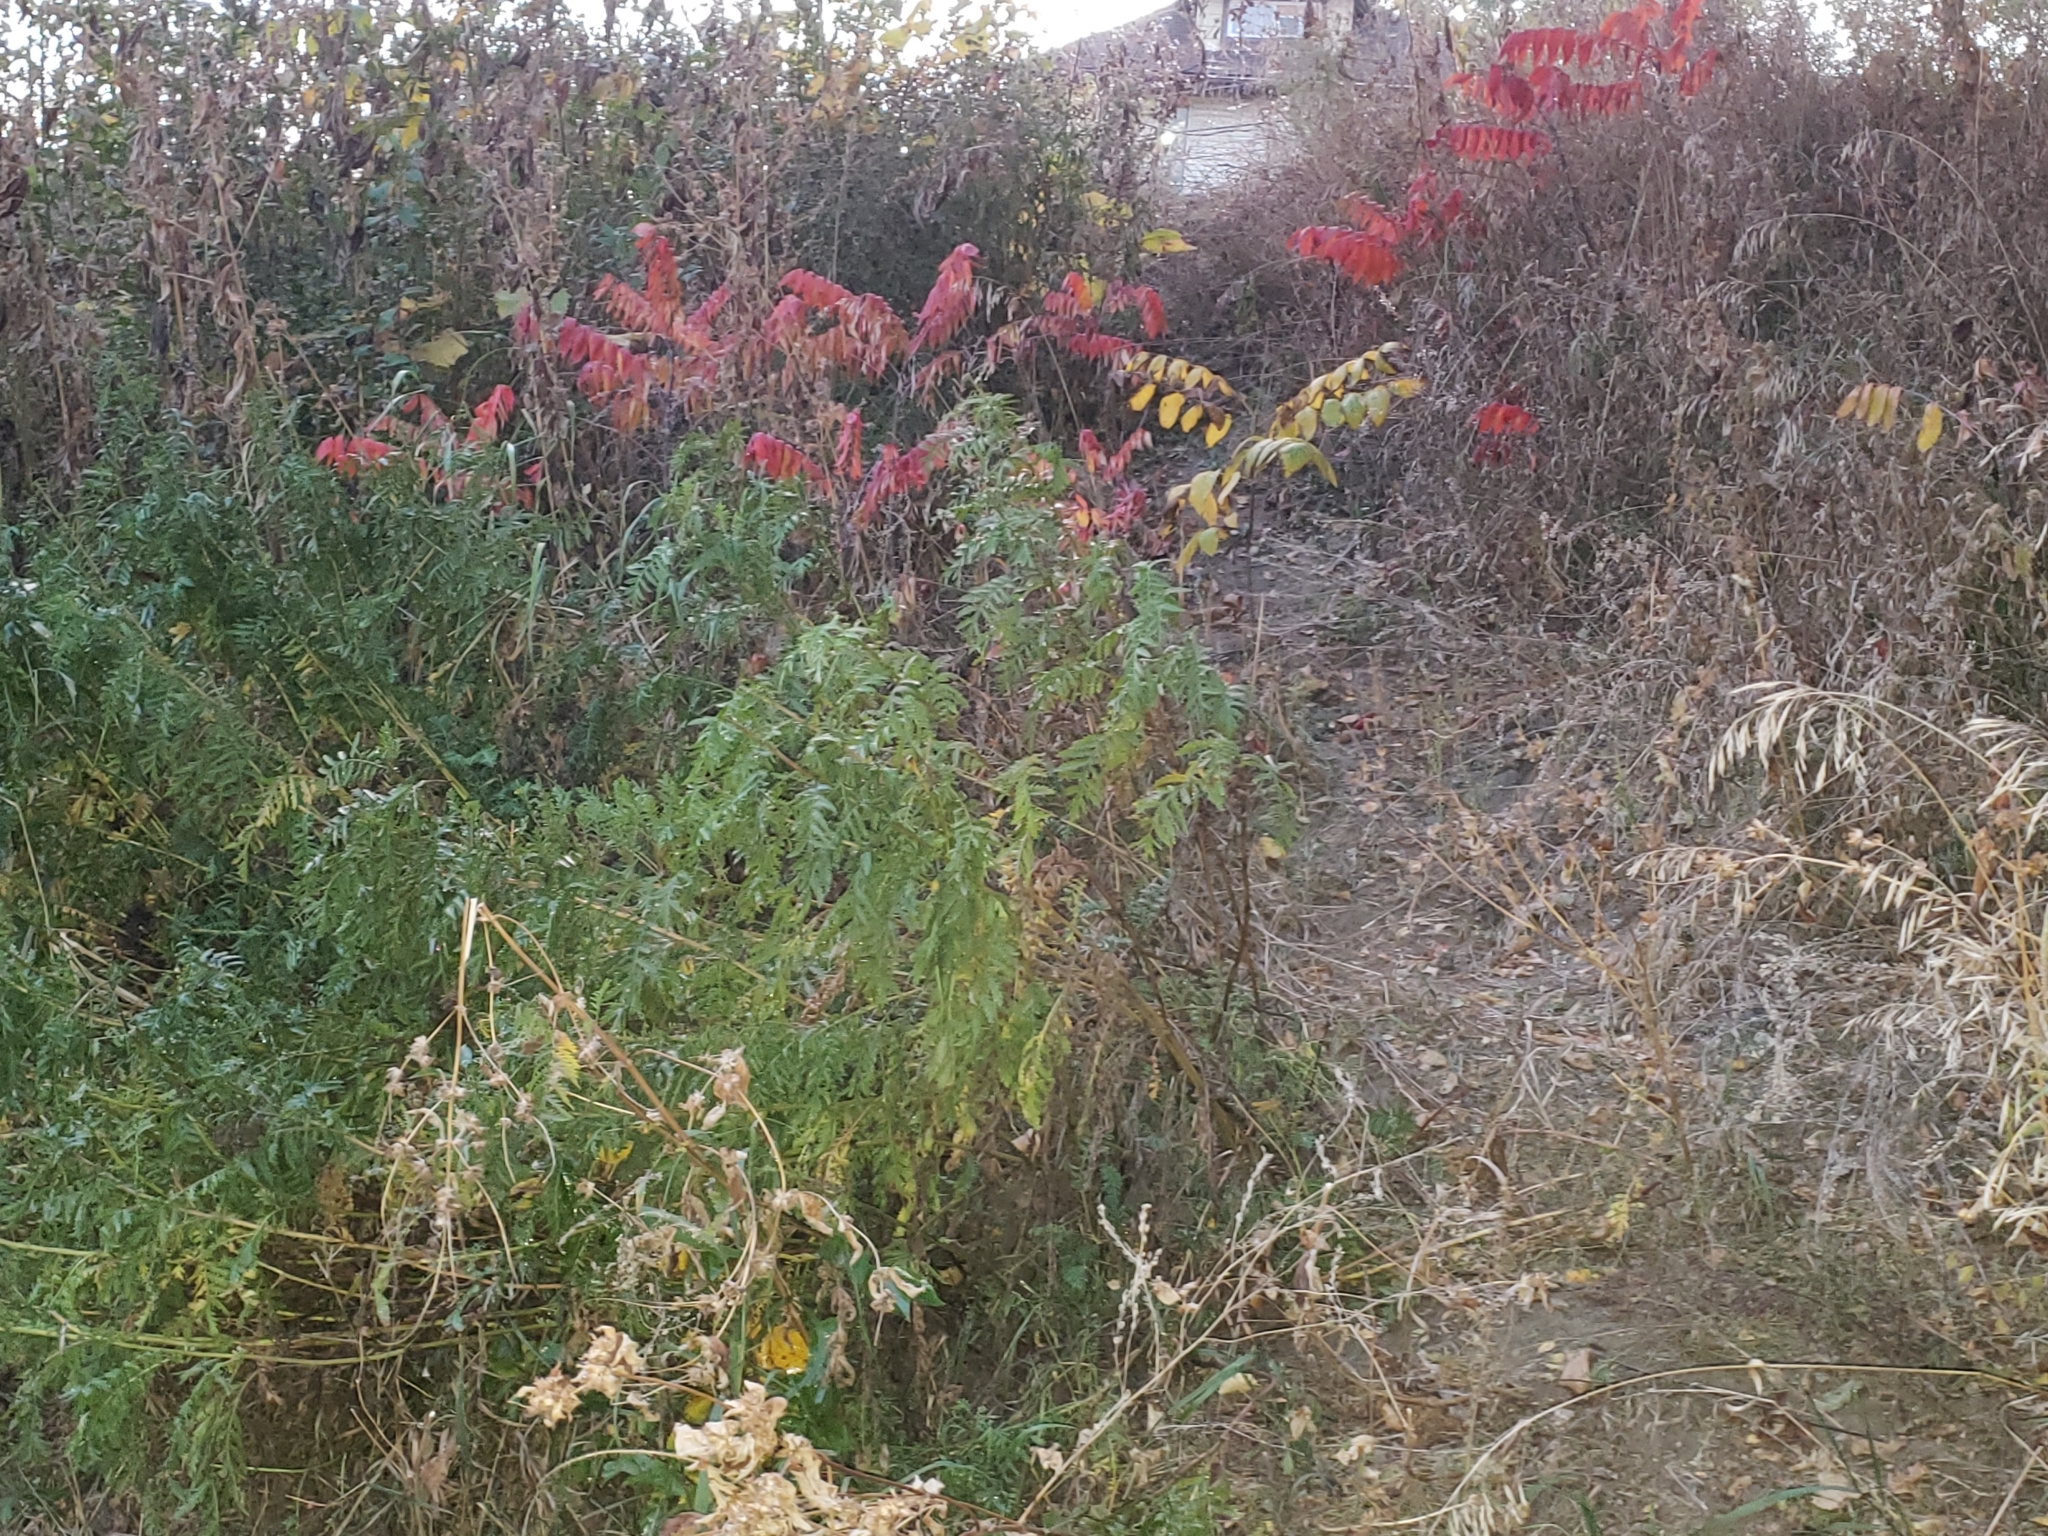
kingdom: Plantae
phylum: Tracheophyta
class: Magnoliopsida
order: Asterales
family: Asteraceae
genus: Tanacetum
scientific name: Tanacetum vulgare
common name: Common tansy
